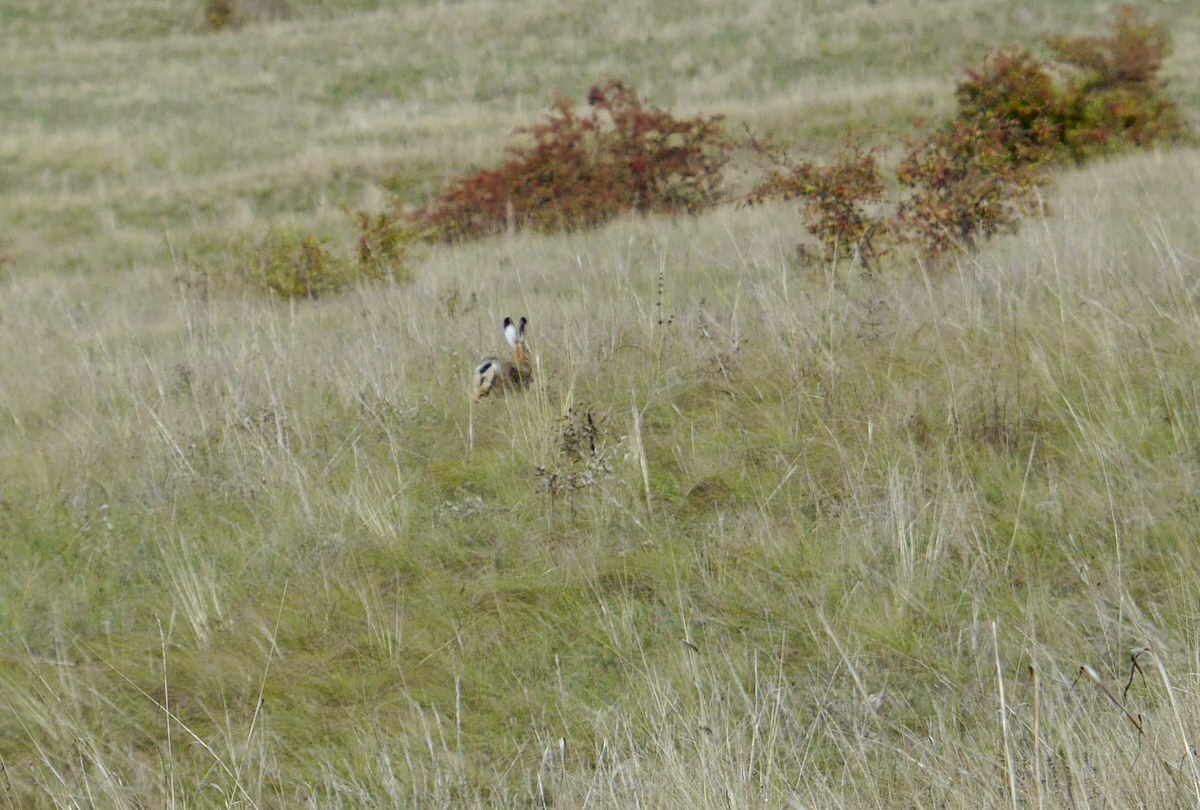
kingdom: Animalia
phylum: Chordata
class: Mammalia
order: Lagomorpha
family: Leporidae
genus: Lepus
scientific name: Lepus europaeus
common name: European hare
